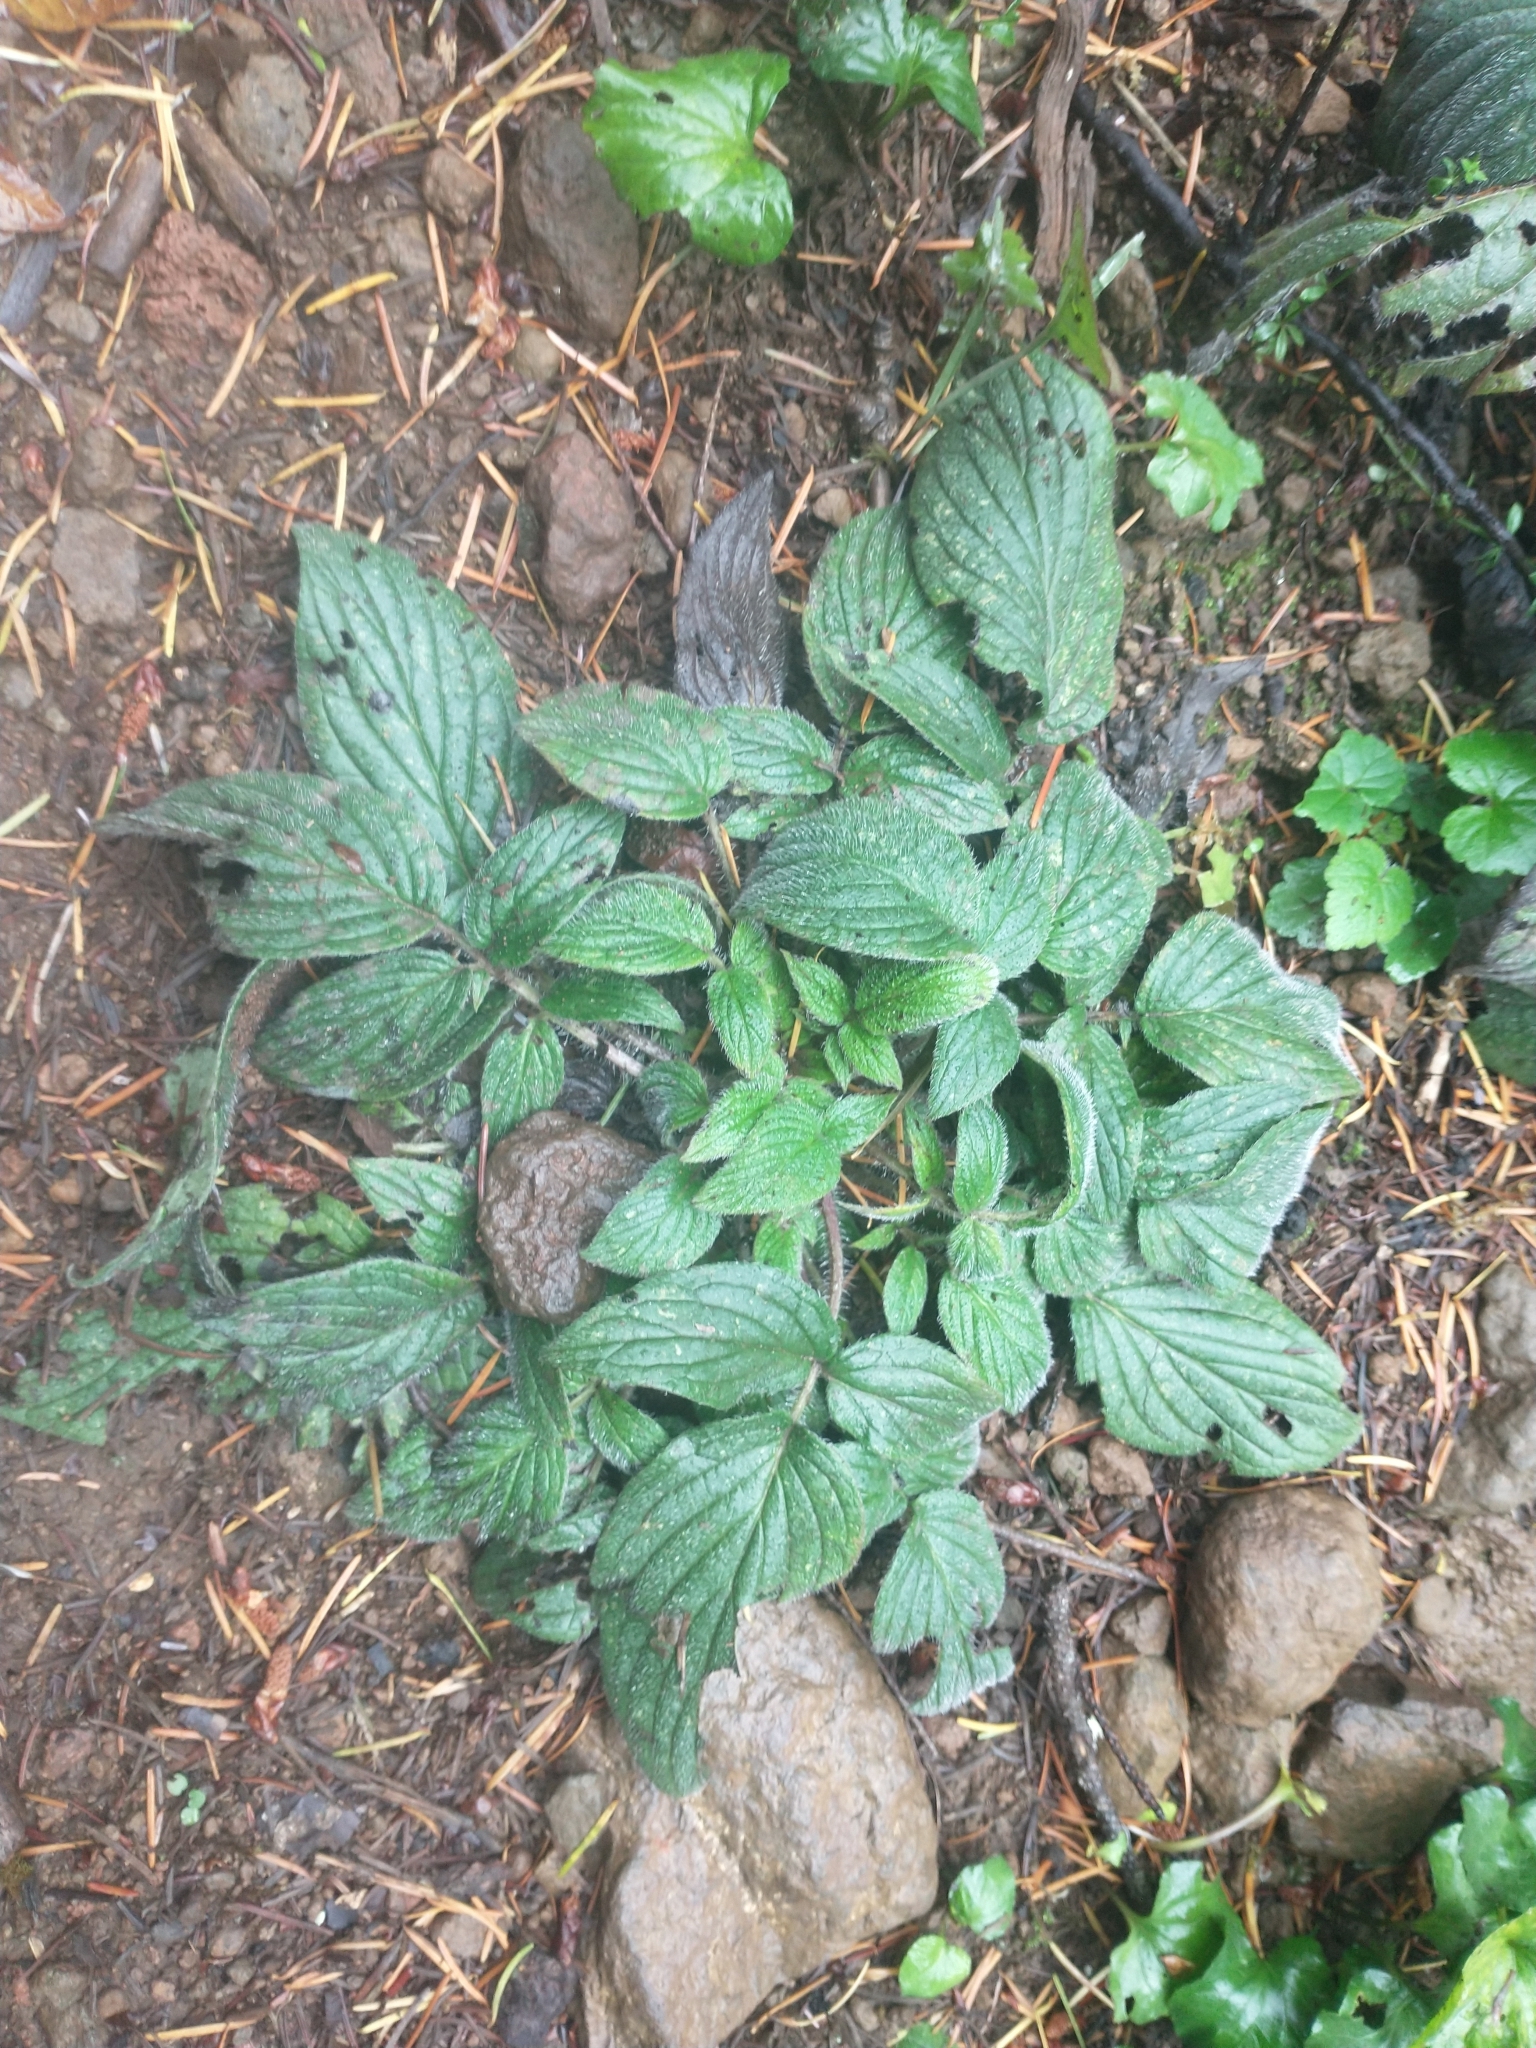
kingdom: Plantae
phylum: Tracheophyta
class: Magnoliopsida
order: Boraginales
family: Hydrophyllaceae
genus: Phacelia
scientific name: Phacelia nemoralis
